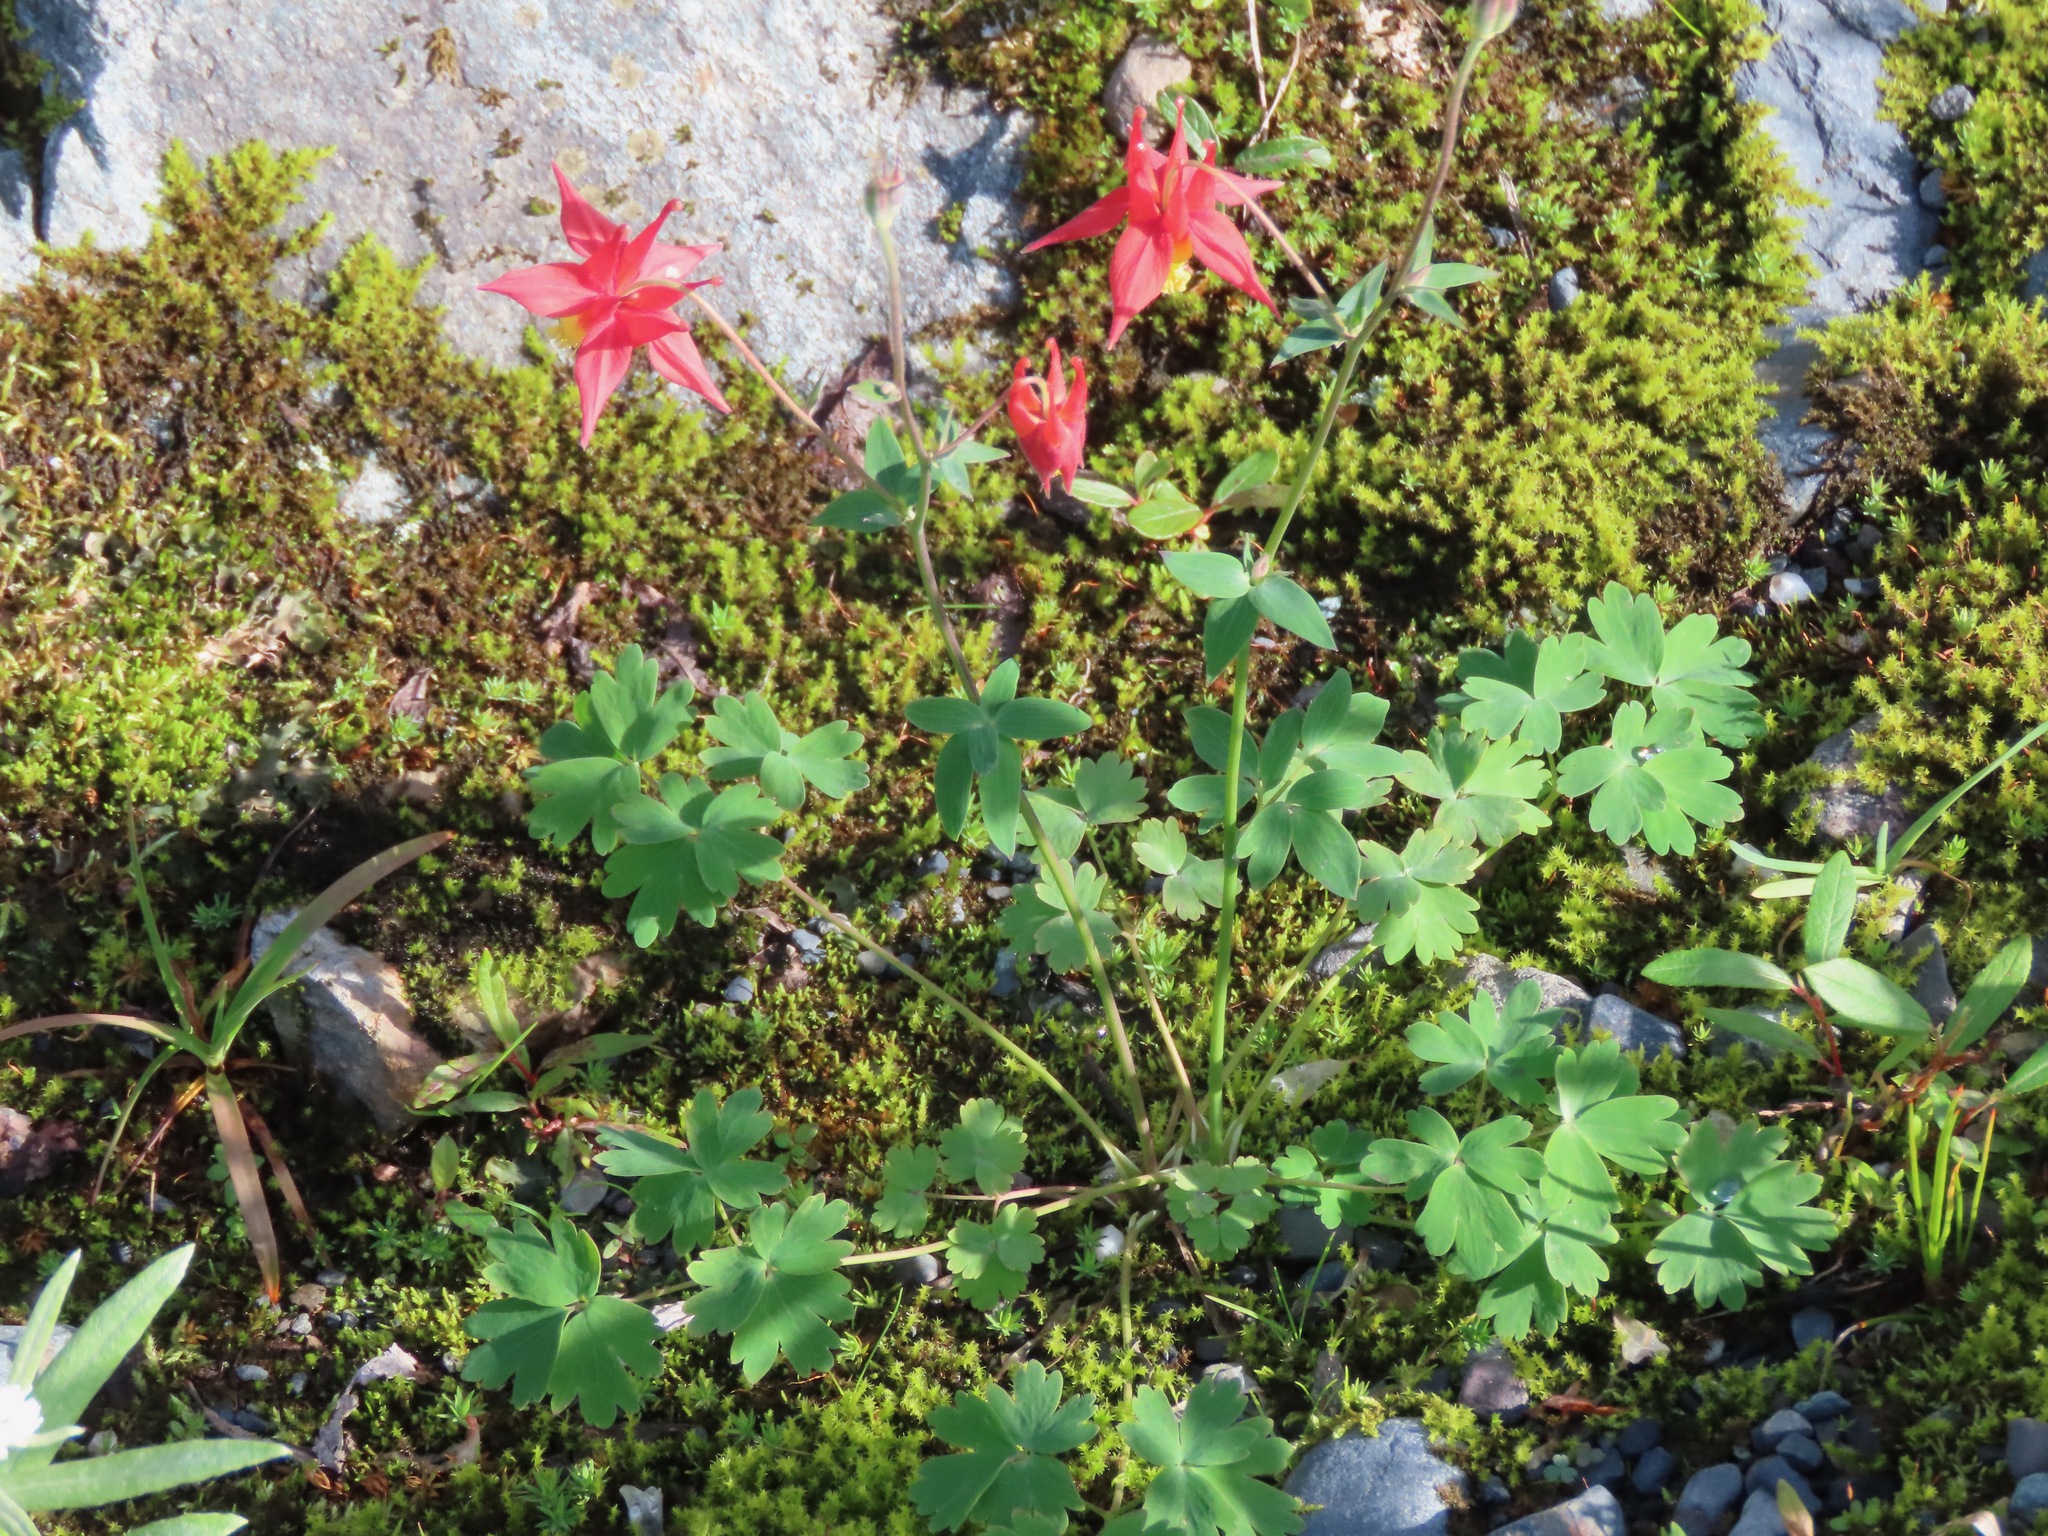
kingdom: Plantae
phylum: Tracheophyta
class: Magnoliopsida
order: Ranunculales
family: Ranunculaceae
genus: Aquilegia
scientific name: Aquilegia formosa
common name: Sitka columbine
